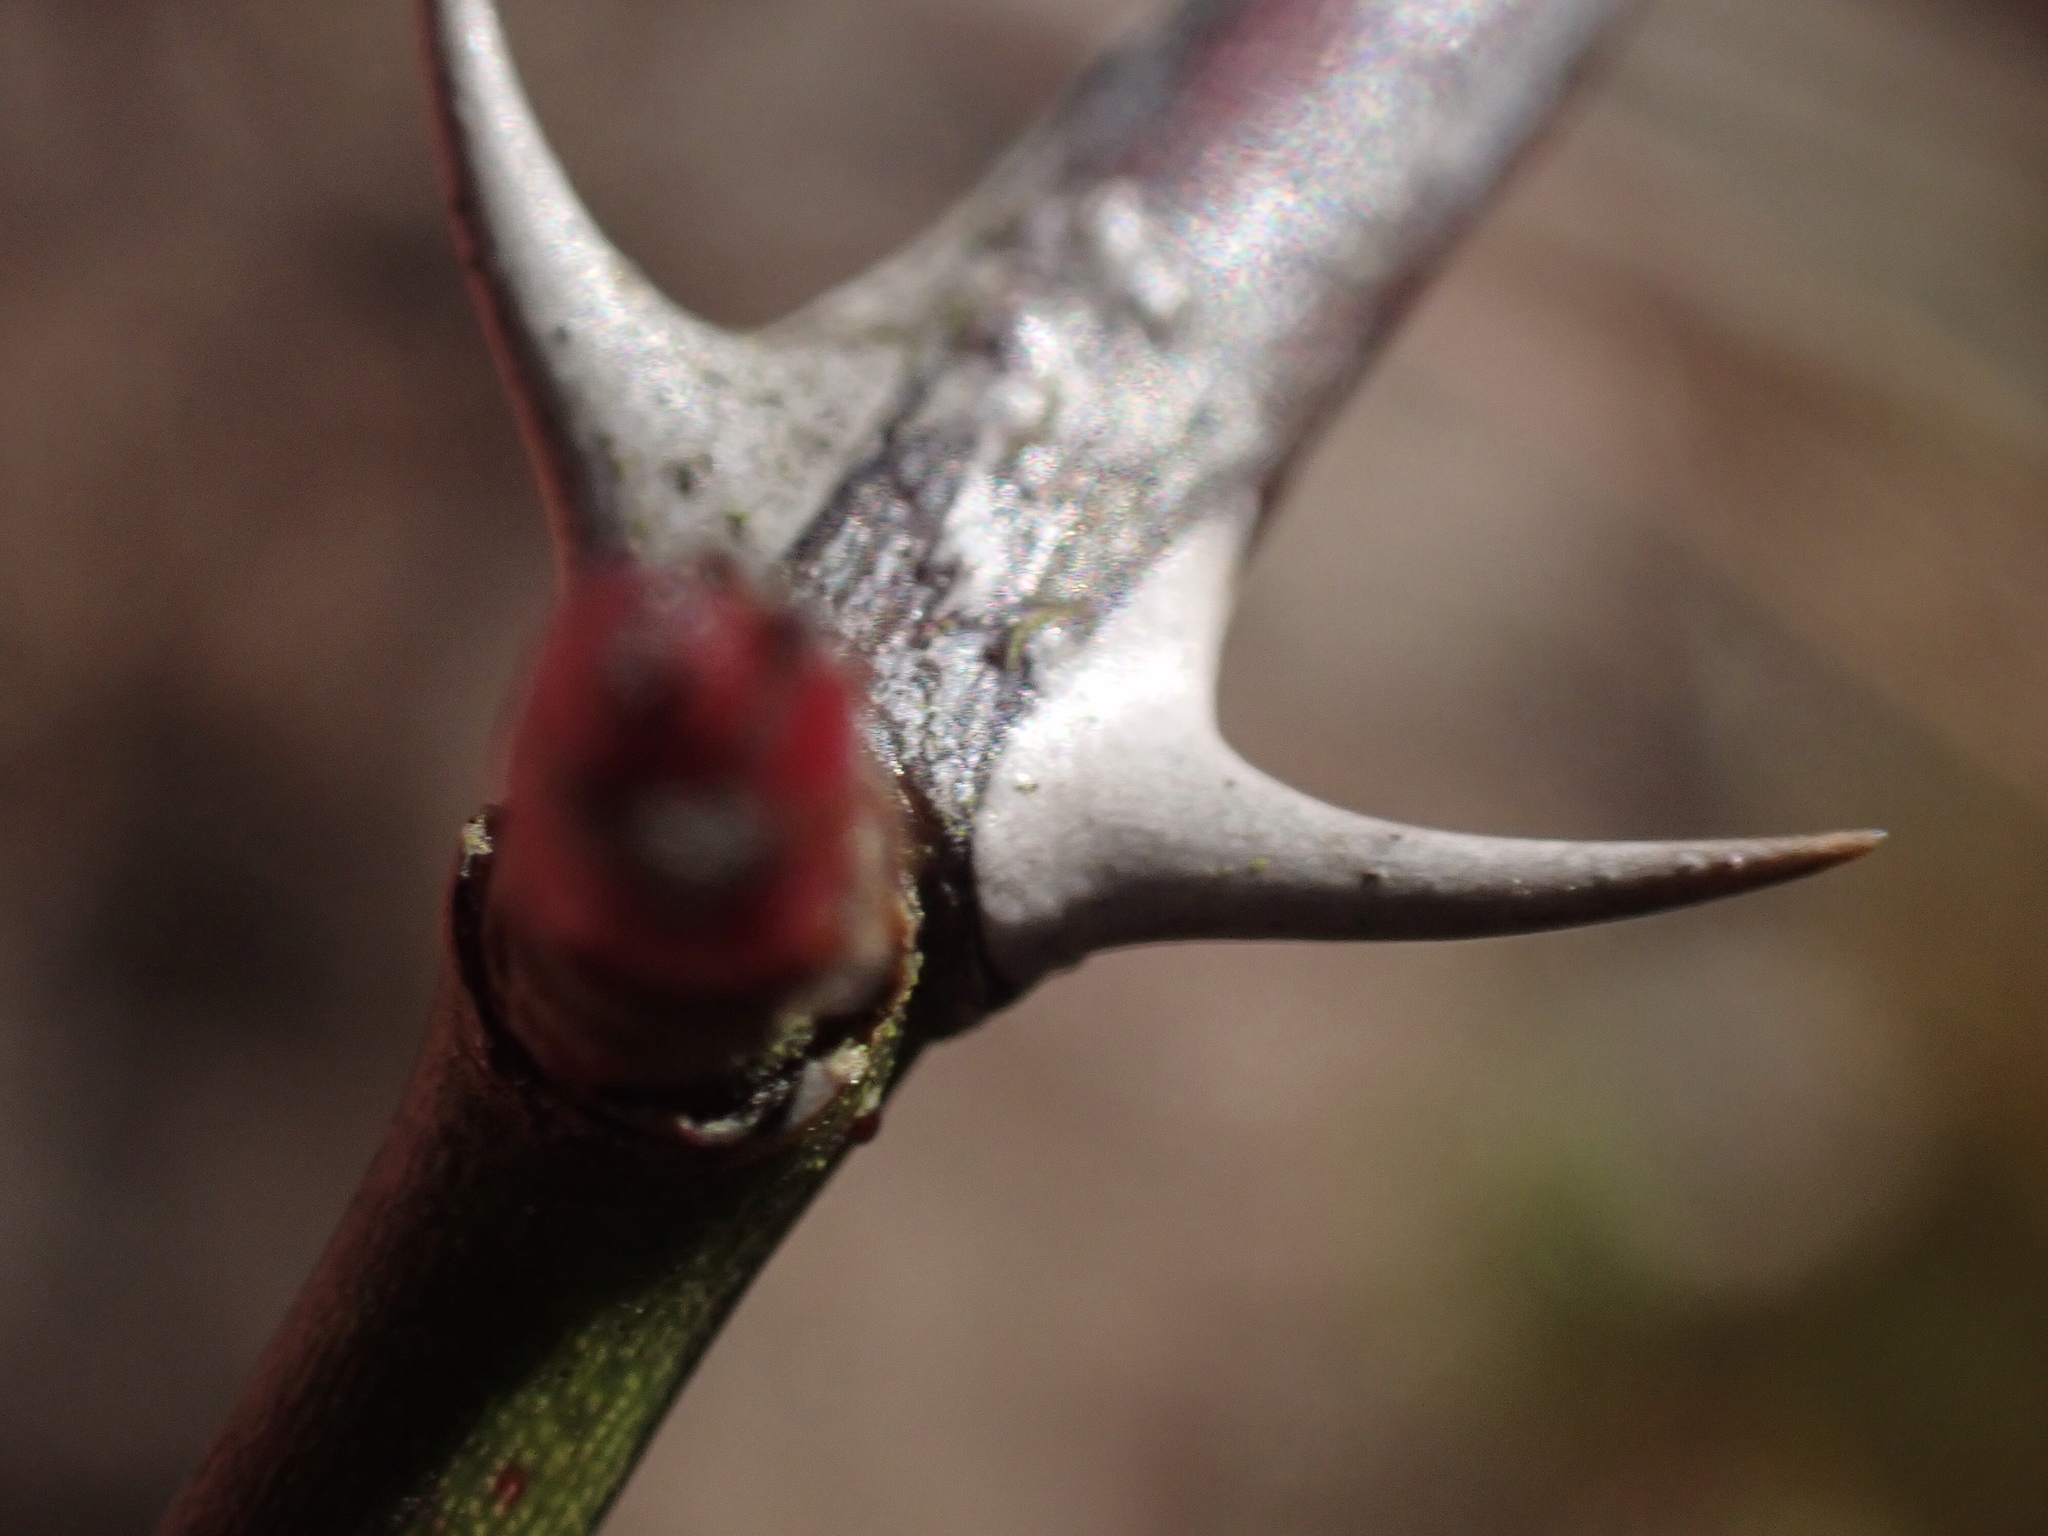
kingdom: Plantae
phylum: Tracheophyta
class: Magnoliopsida
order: Rosales
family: Rosaceae
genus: Rosa
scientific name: Rosa multiflora
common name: Multiflora rose
